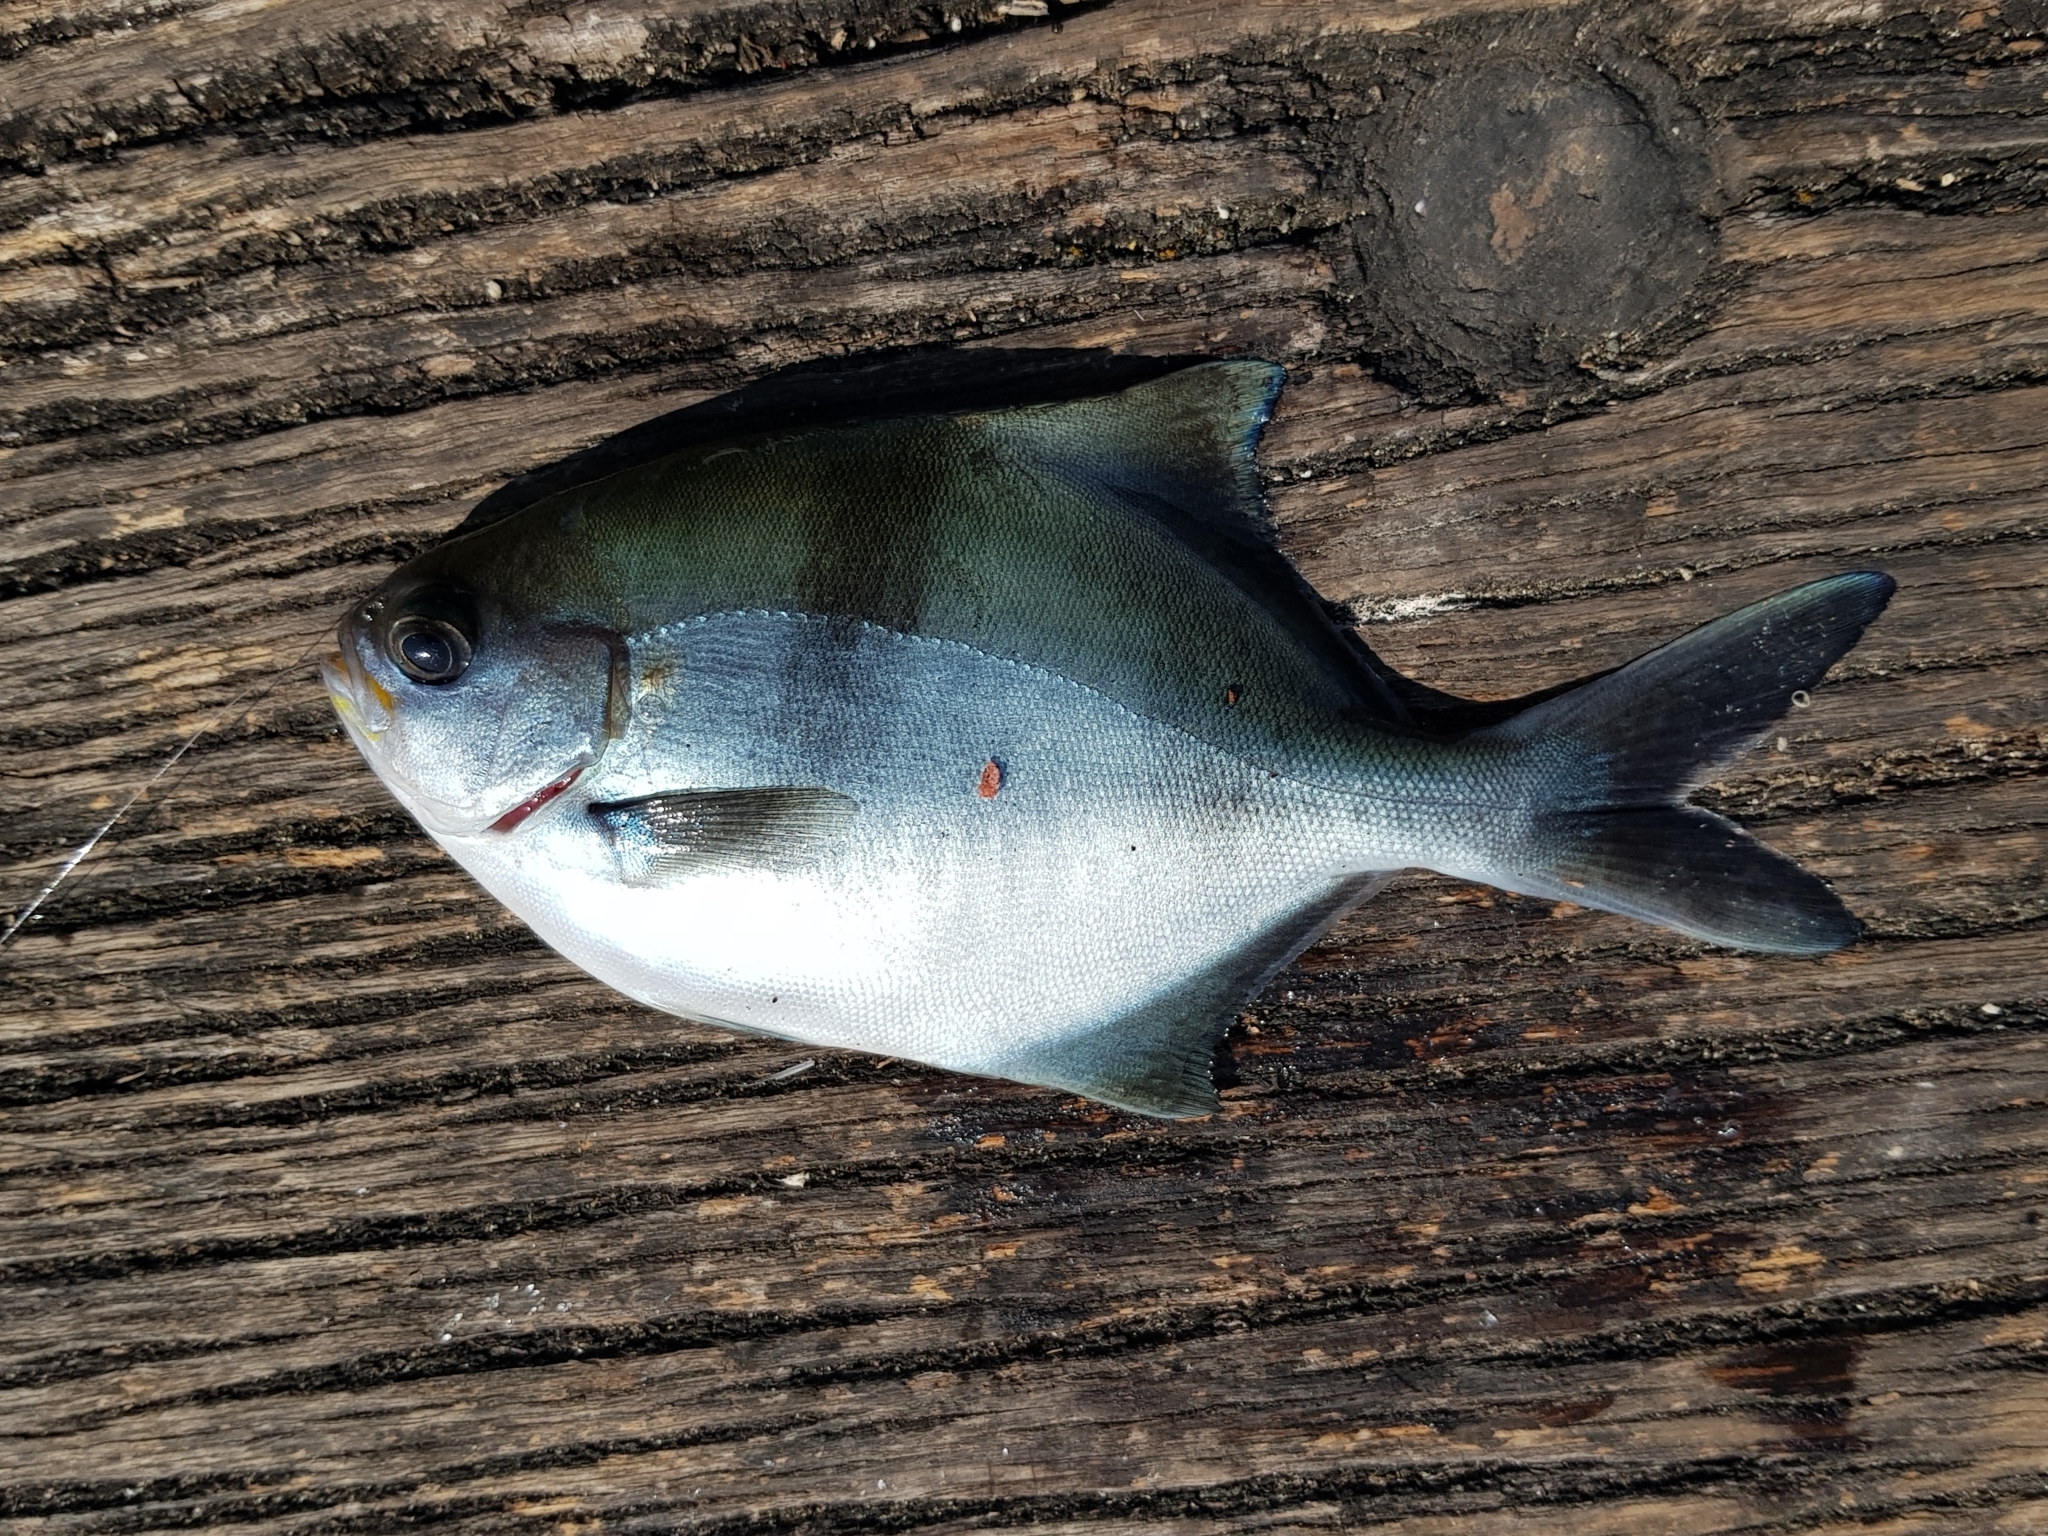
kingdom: Animalia
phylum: Chordata
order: Perciformes
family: Kyphosidae
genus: Scorpis
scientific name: Scorpis aequipinnis
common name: Sea sweep
